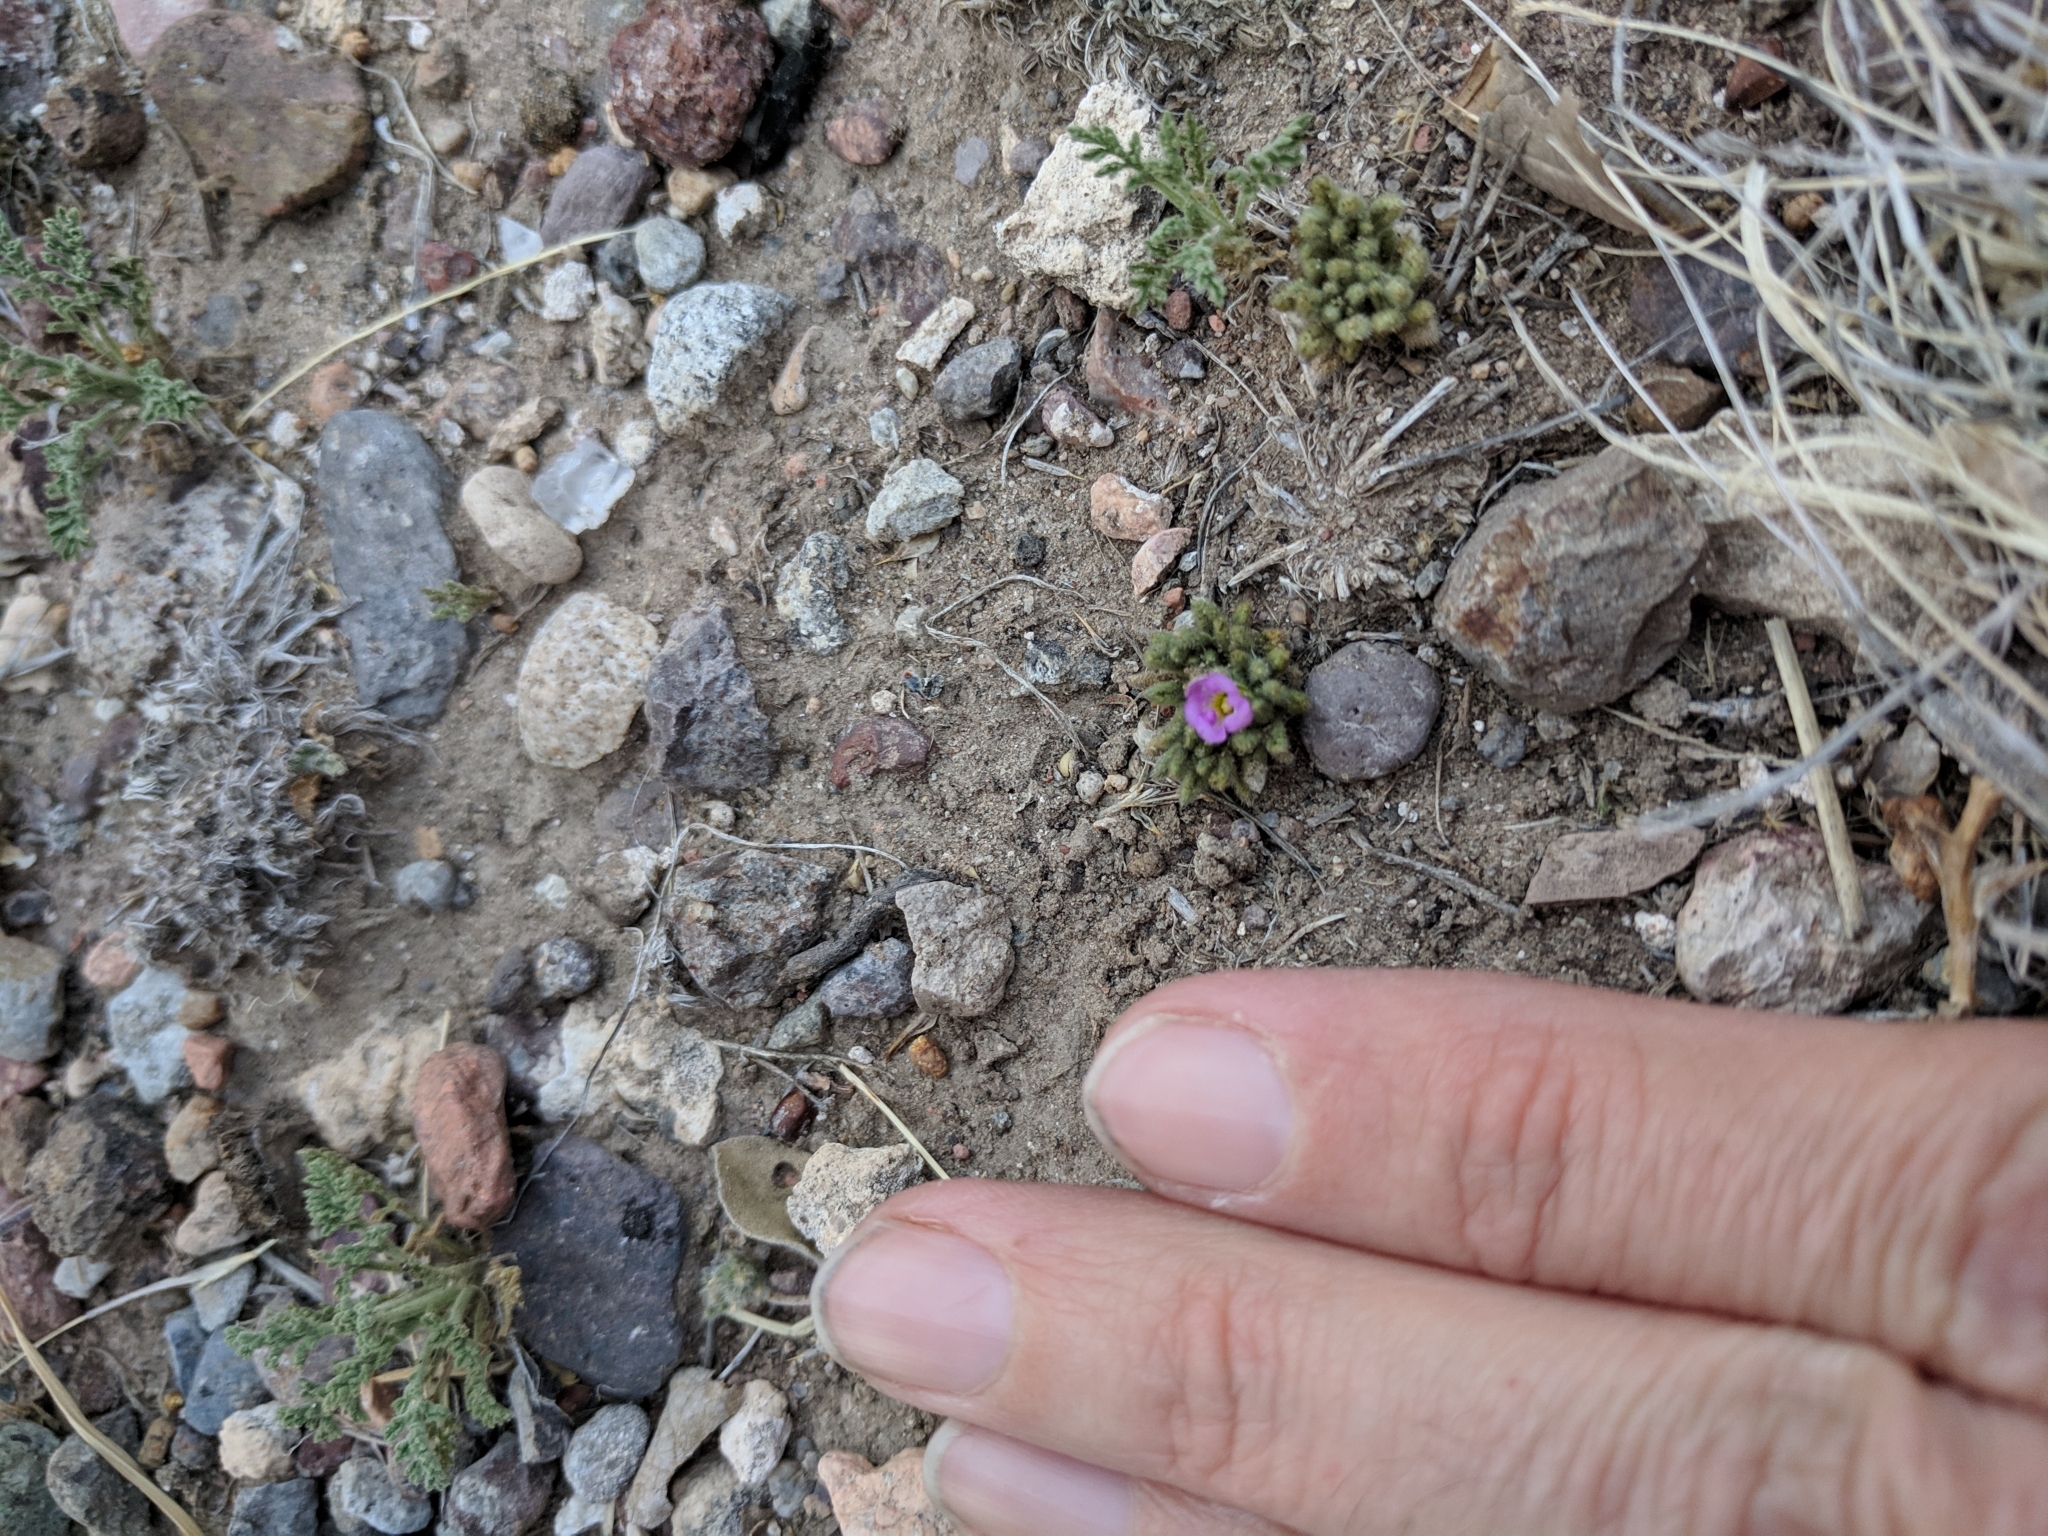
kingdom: Plantae
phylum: Tracheophyta
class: Magnoliopsida
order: Boraginales
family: Namaceae
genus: Nama
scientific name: Nama hispida
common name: Bristly nama
